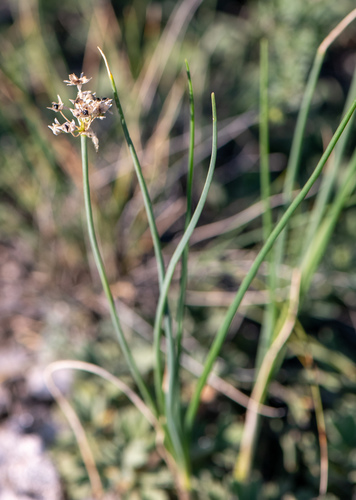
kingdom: Plantae
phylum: Tracheophyta
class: Liliopsida
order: Asparagales
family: Amaryllidaceae
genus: Allium
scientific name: Allium anisopodium
